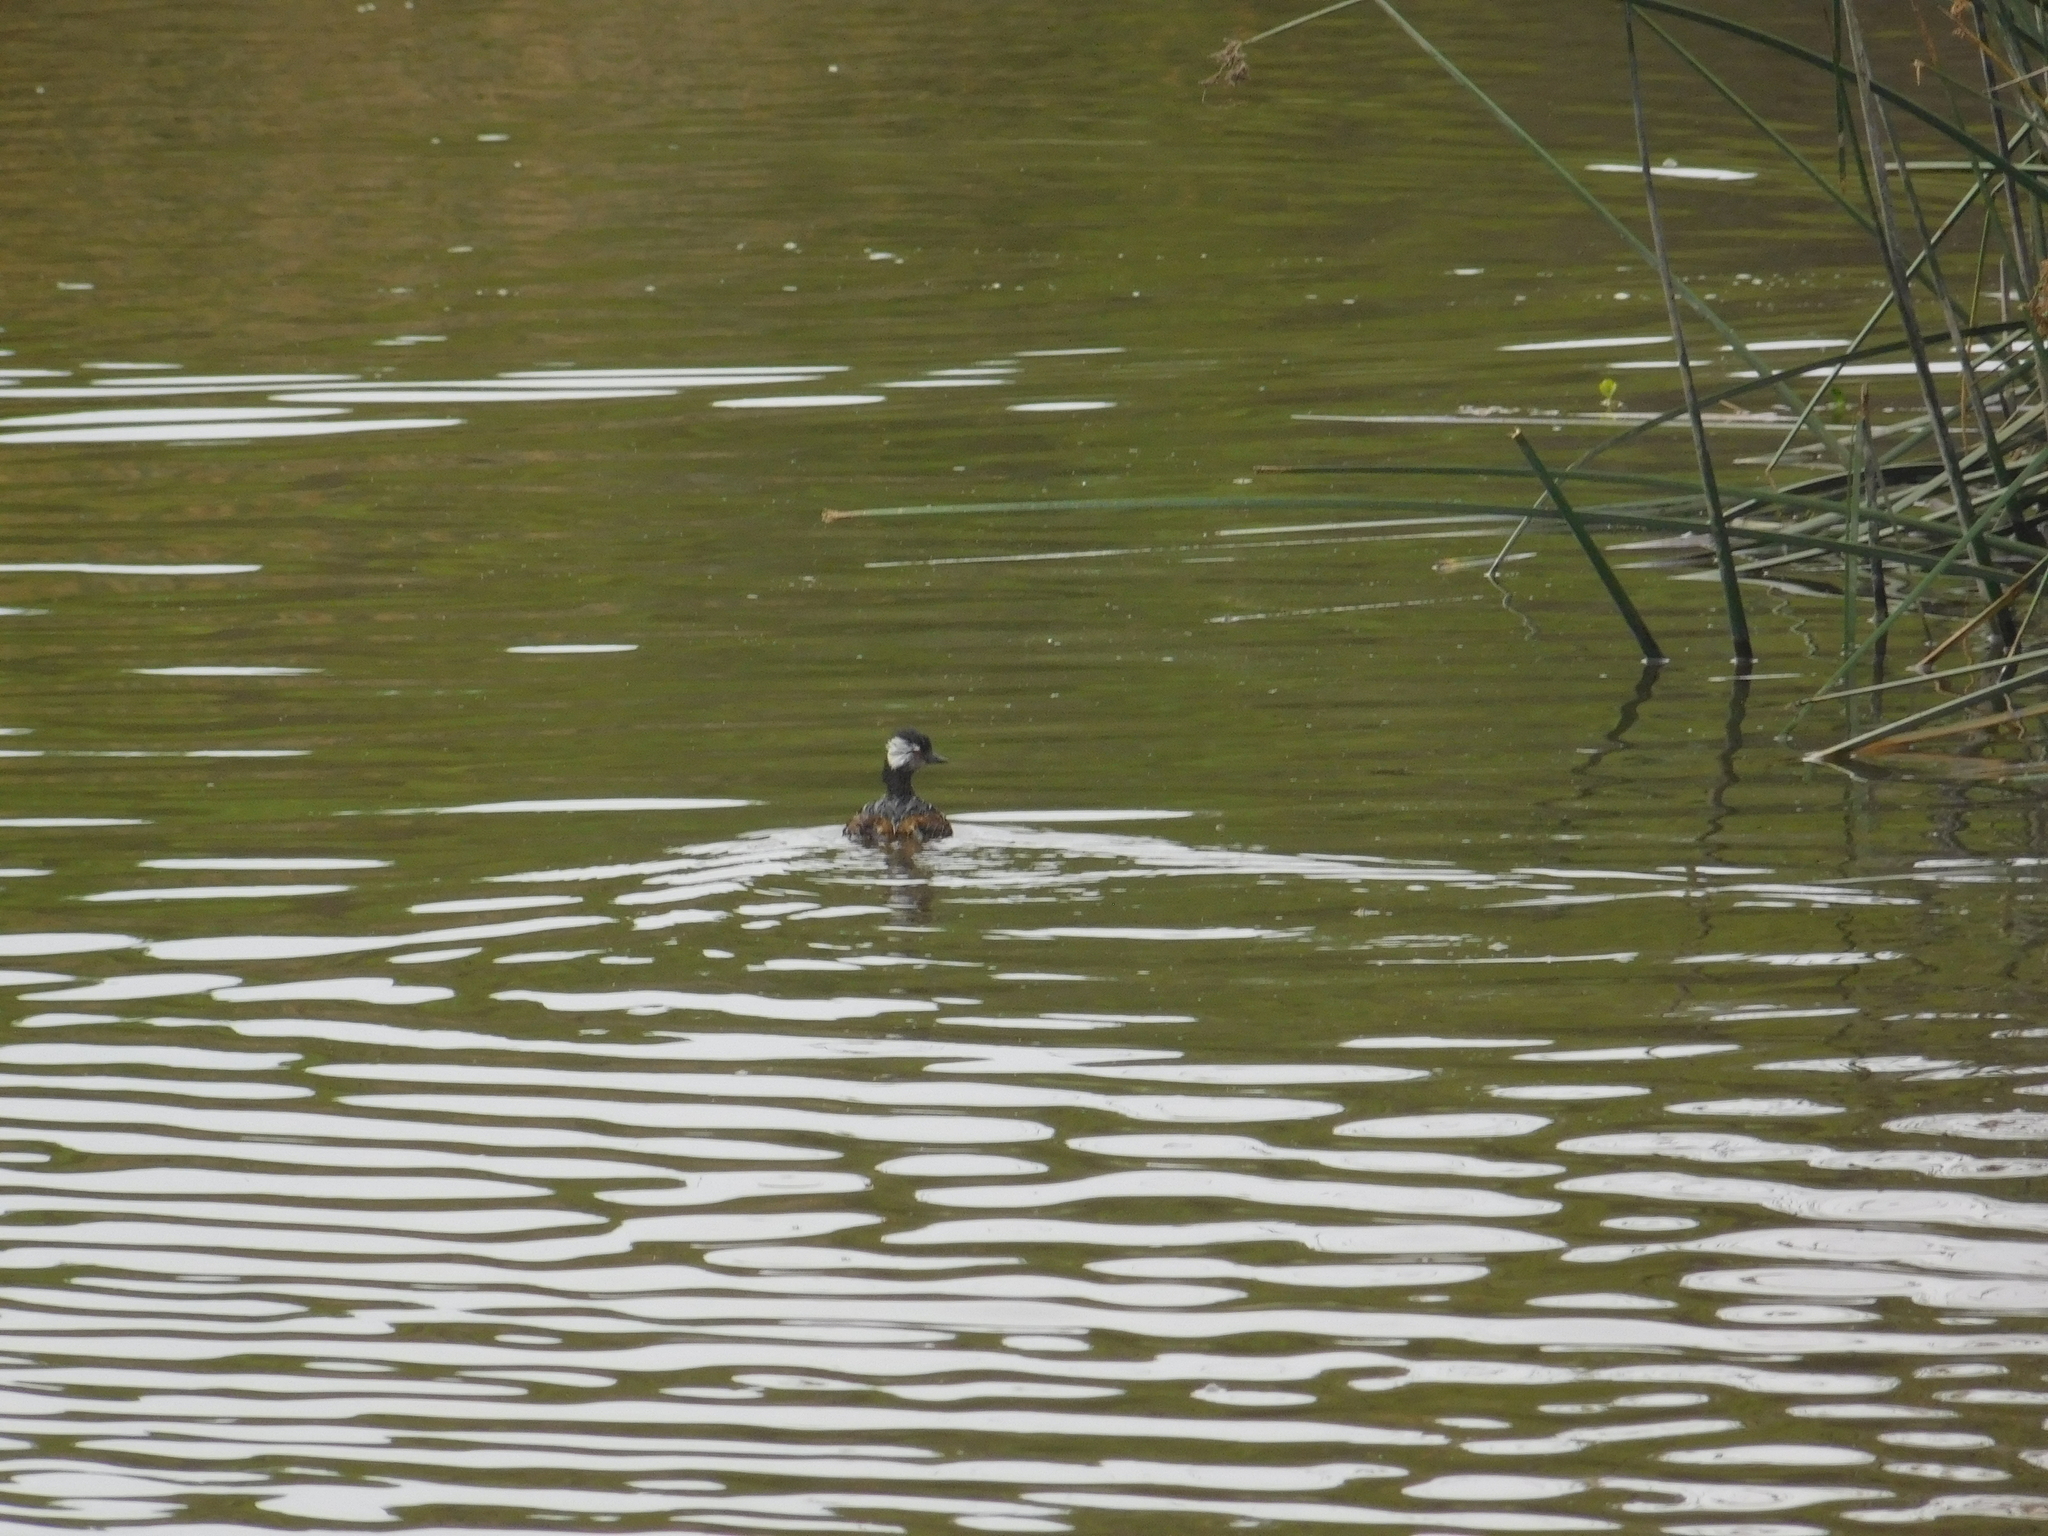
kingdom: Animalia
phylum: Chordata
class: Aves
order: Podicipediformes
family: Podicipedidae
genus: Rollandia
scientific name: Rollandia rolland
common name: White-tufted grebe
